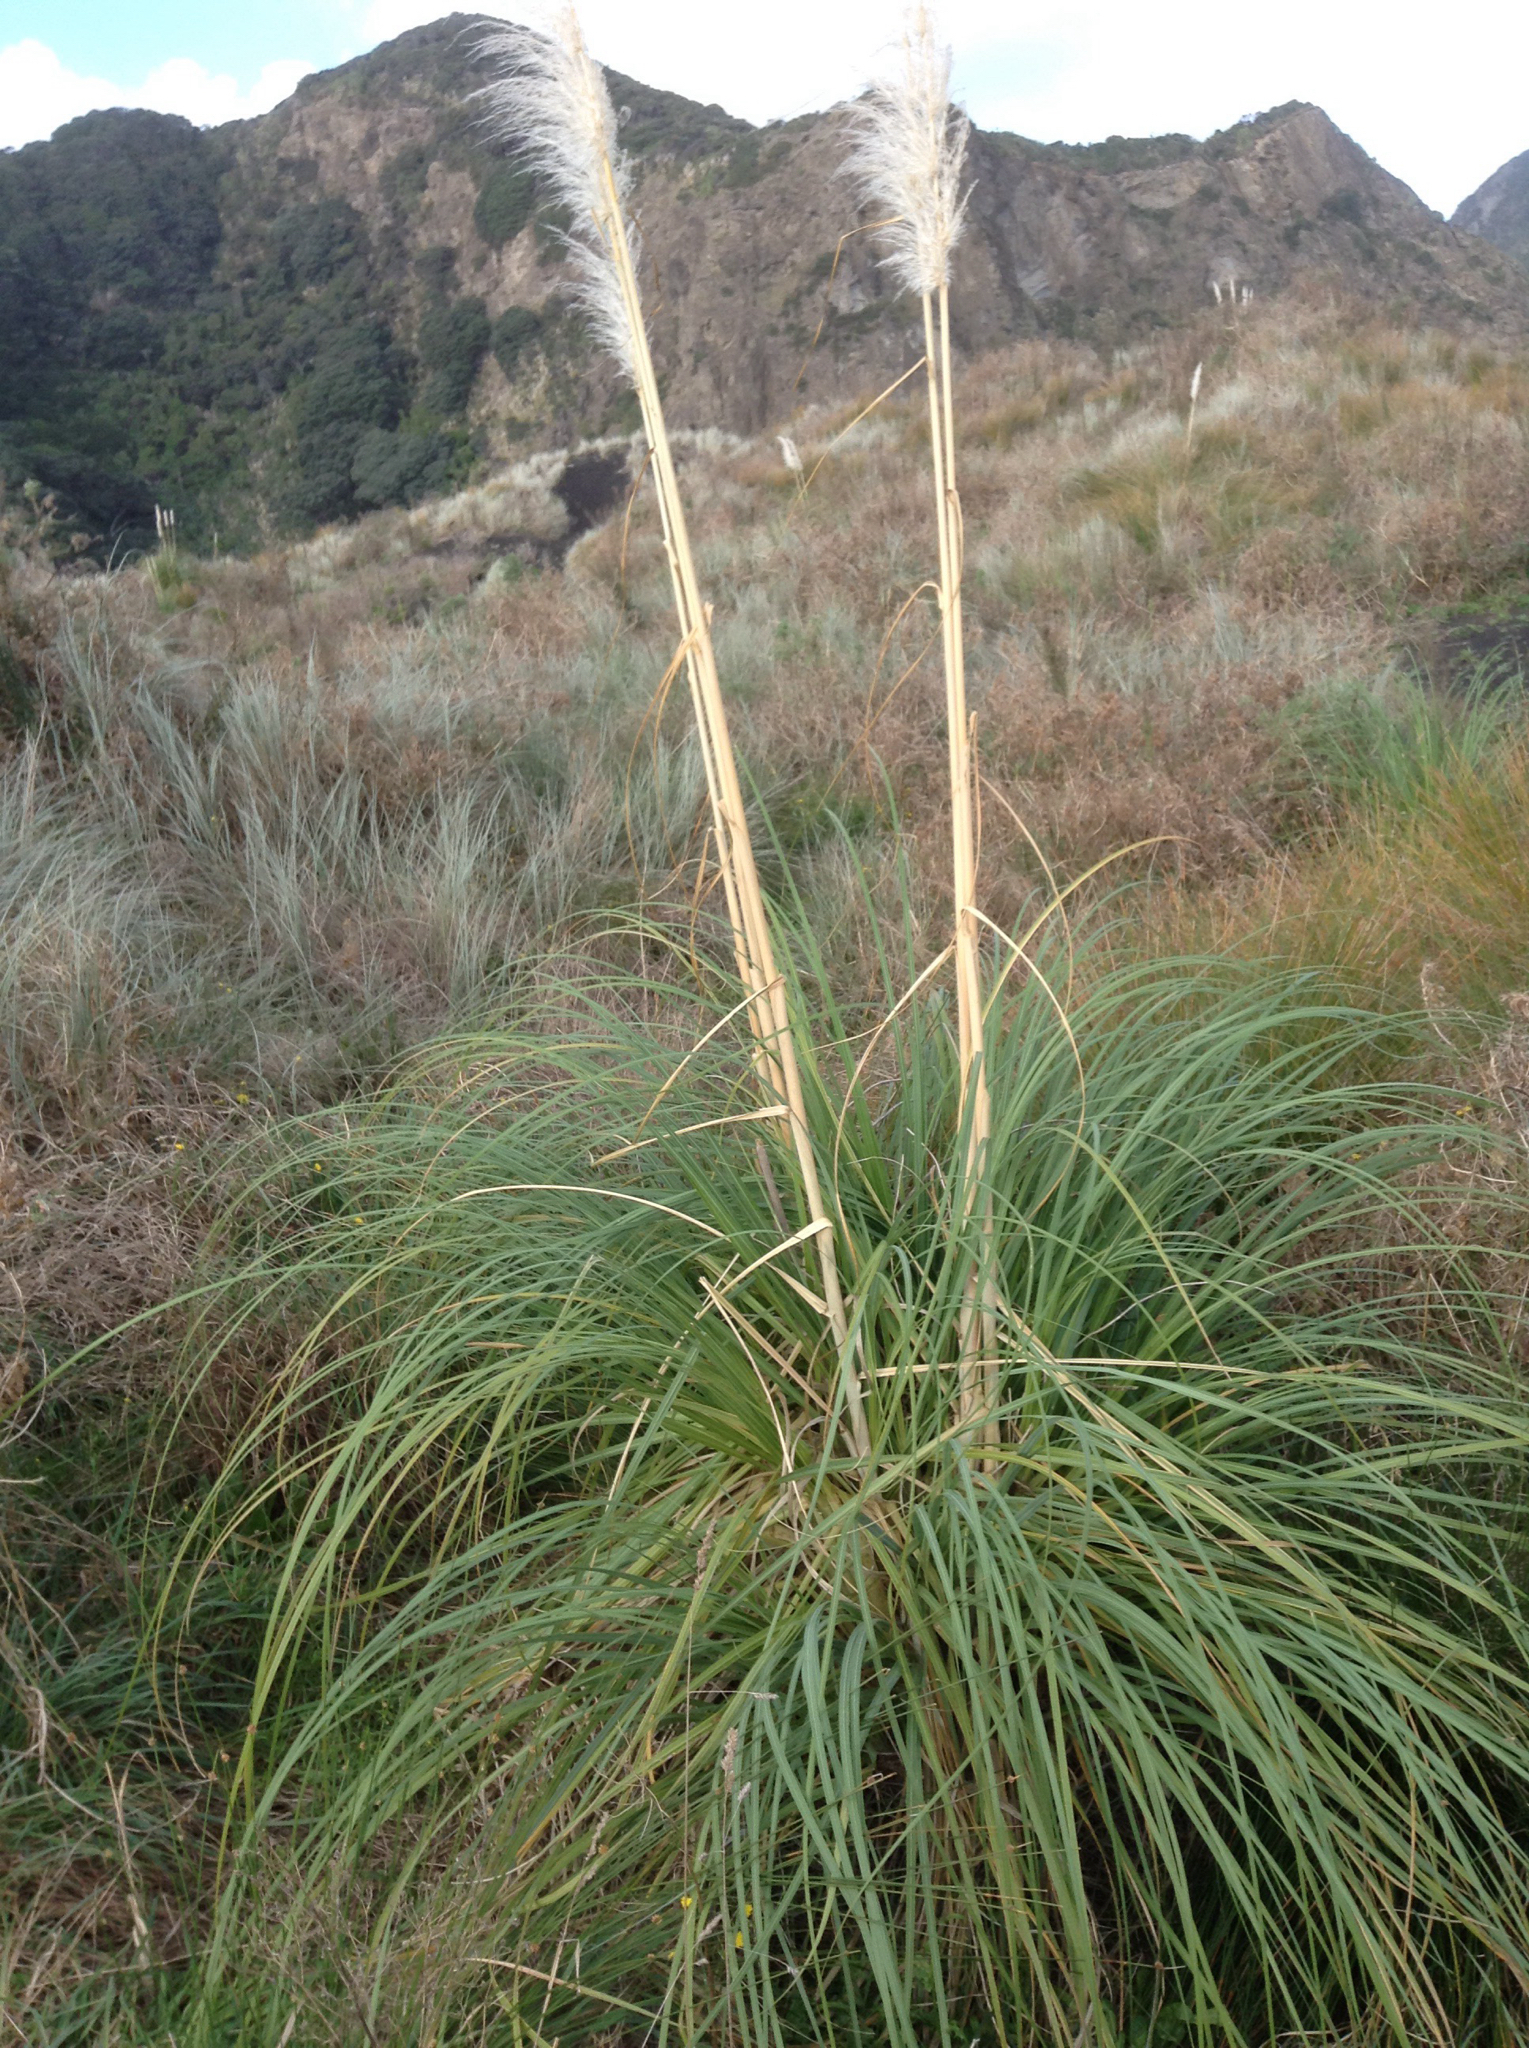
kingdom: Plantae
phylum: Tracheophyta
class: Liliopsida
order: Poales
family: Poaceae
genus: Cortaderia
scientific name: Cortaderia selloana
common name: Uruguayan pampas grass
